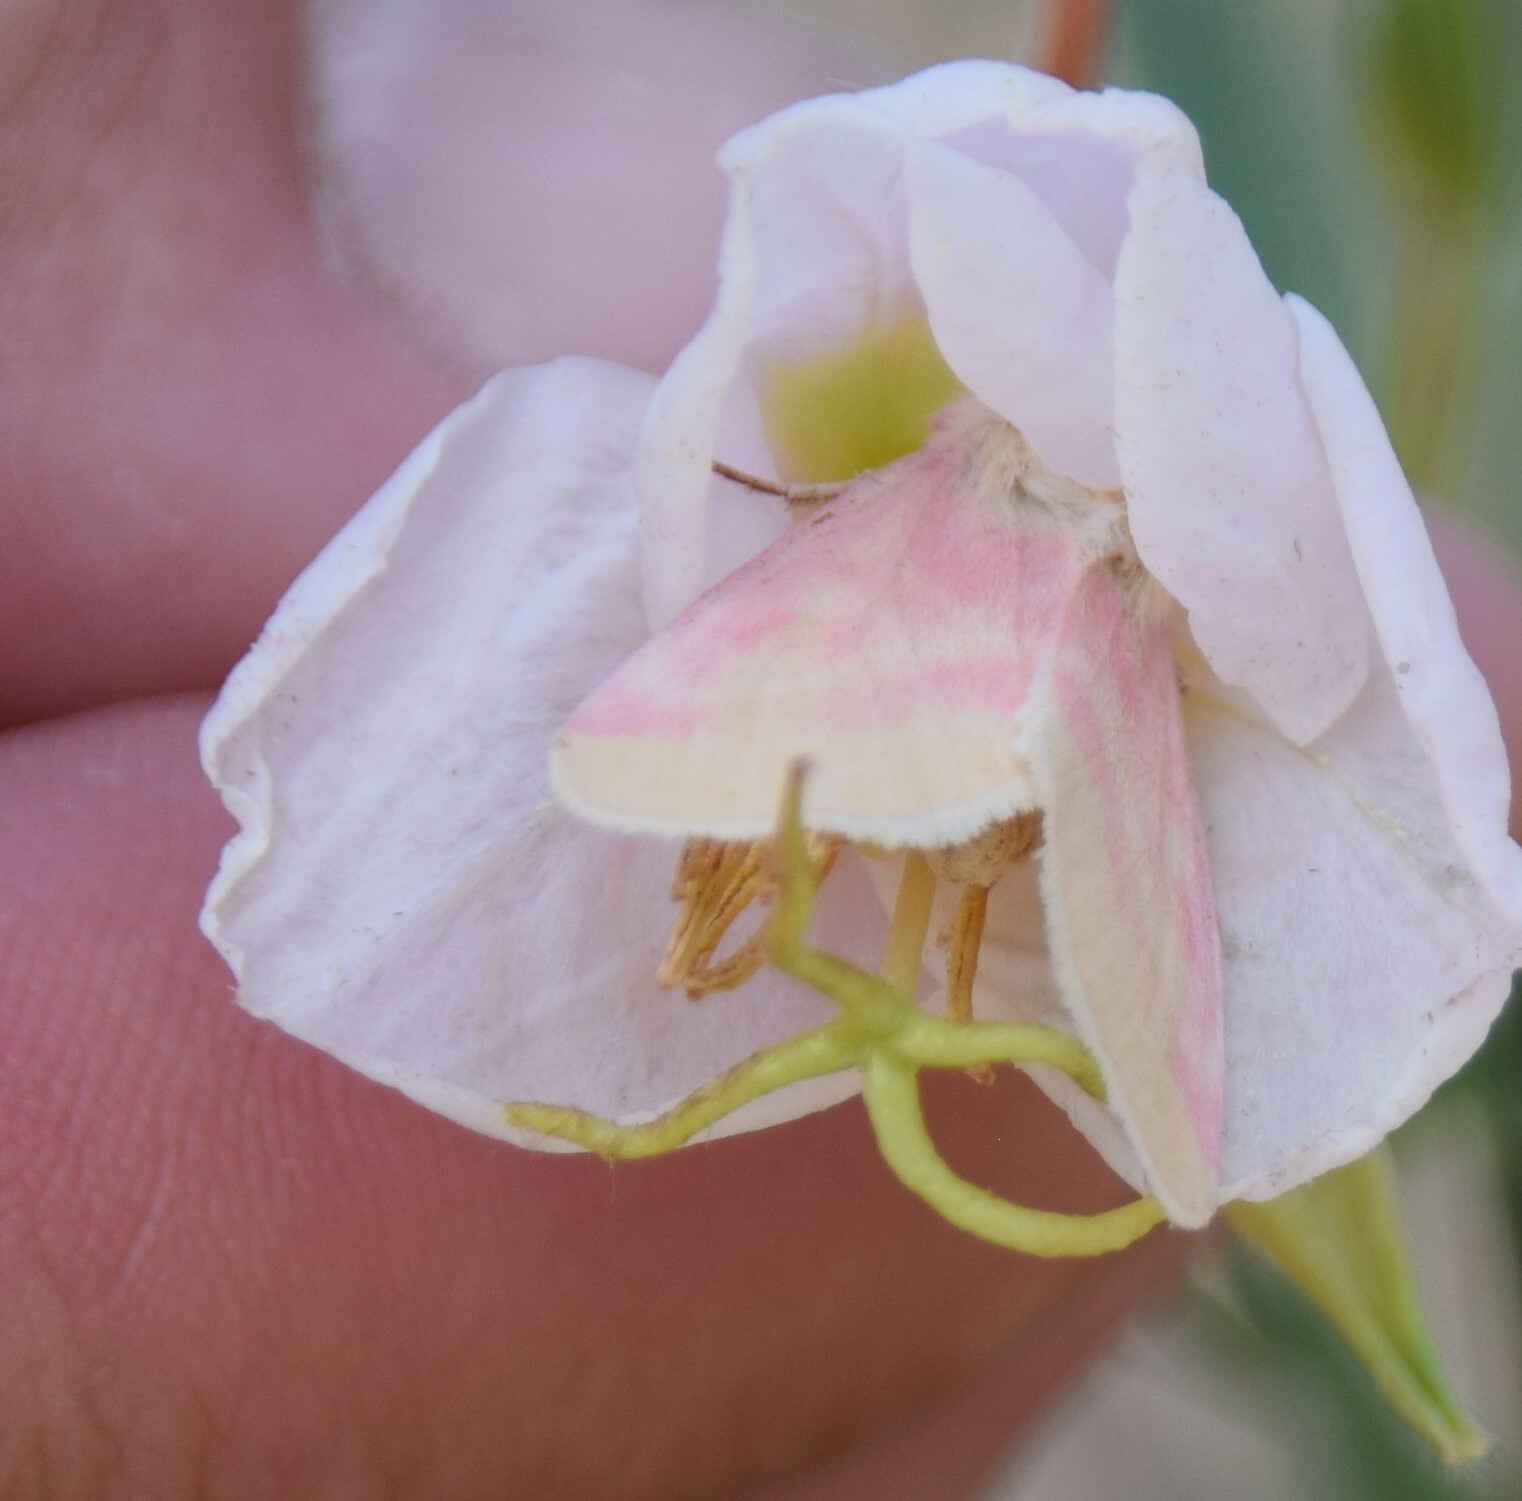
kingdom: Animalia
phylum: Arthropoda
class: Insecta
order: Lepidoptera
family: Noctuidae
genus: Schinia
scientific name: Schinia florida
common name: Primrose moth
